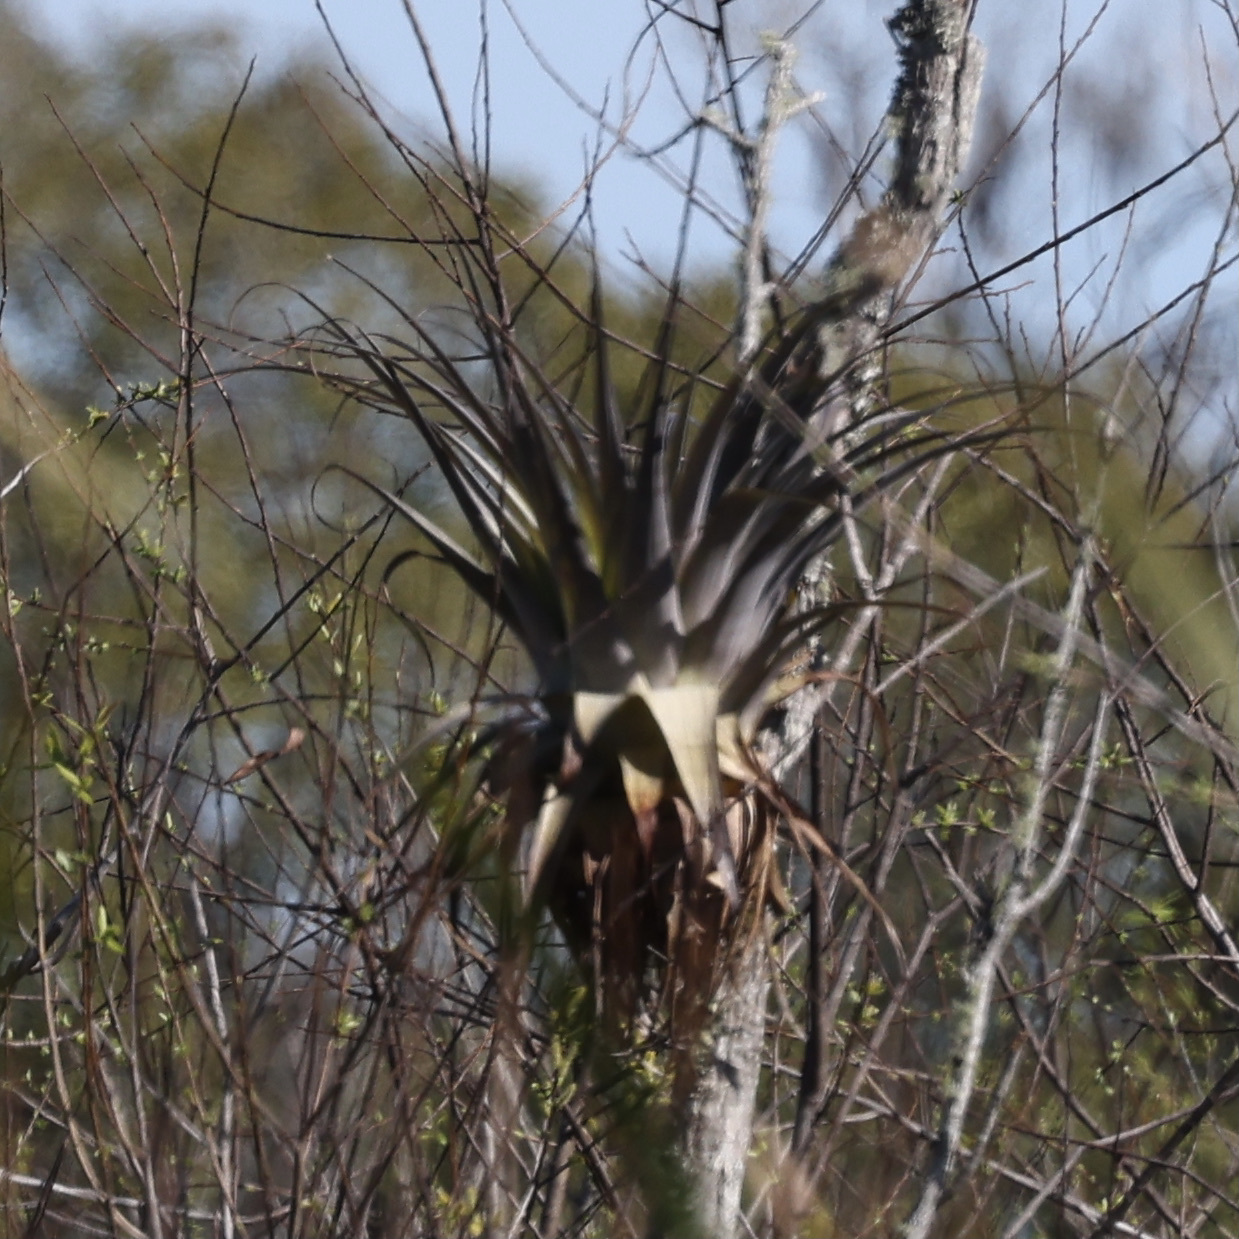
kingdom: Plantae
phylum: Tracheophyta
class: Liliopsida
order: Poales
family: Bromeliaceae
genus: Tillandsia
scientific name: Tillandsia utriculata
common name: Wild pine
